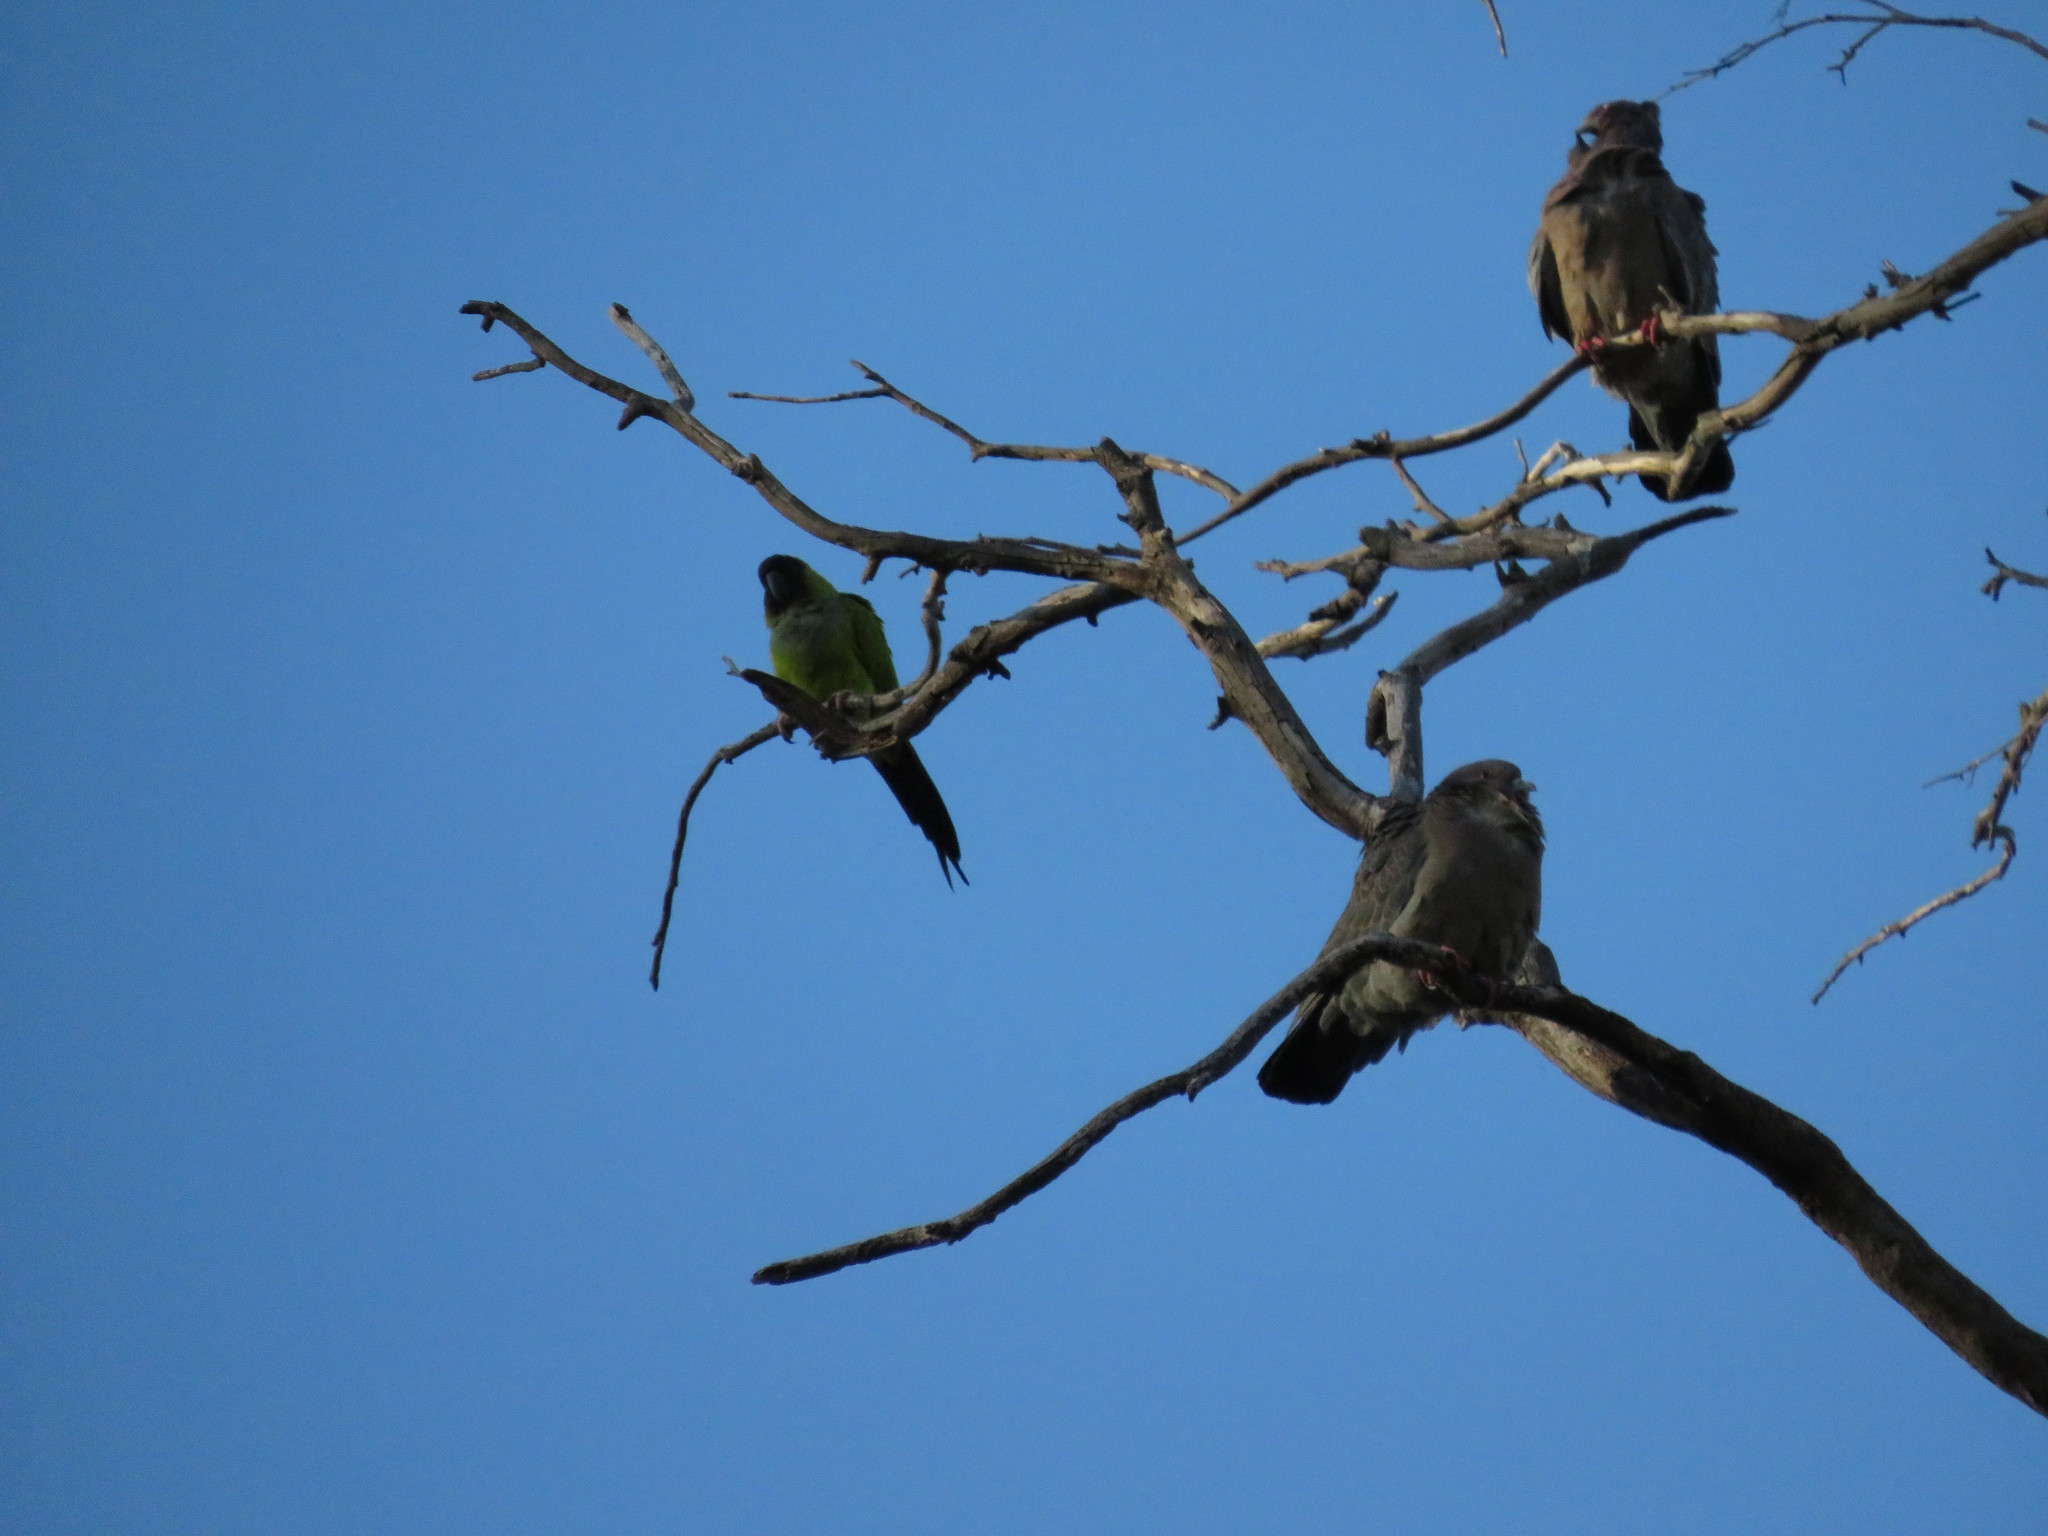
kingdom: Animalia
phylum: Chordata
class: Aves
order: Psittaciformes
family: Psittacidae
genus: Nandayus
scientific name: Nandayus nenday
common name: Nanday parakeet
